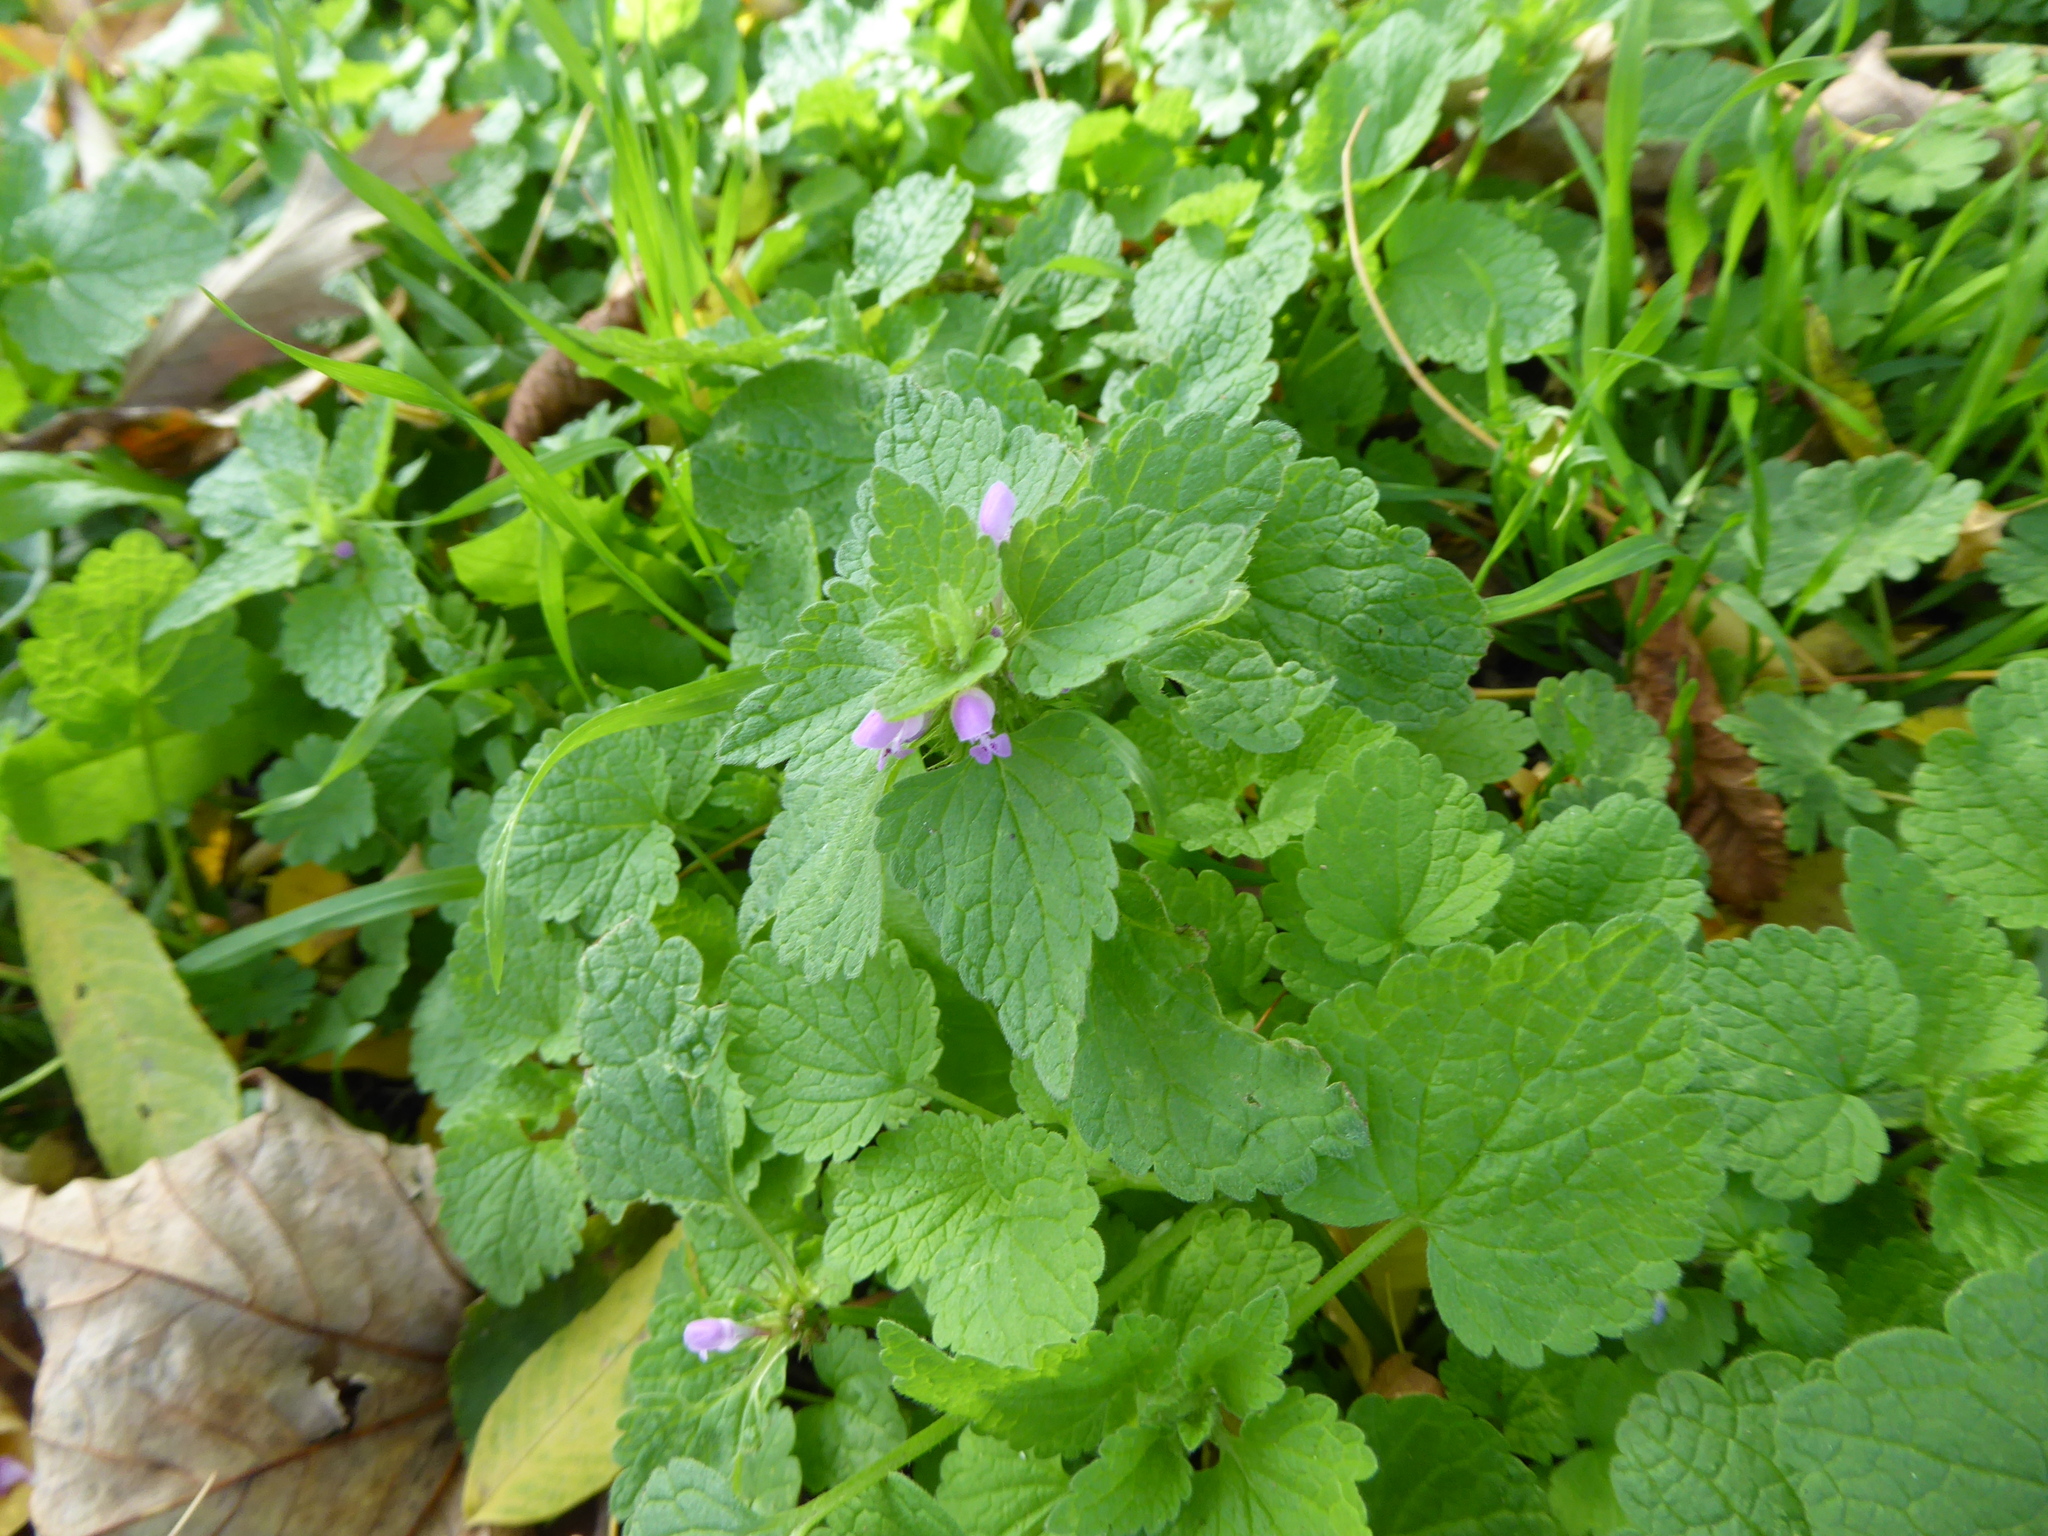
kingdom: Plantae
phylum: Tracheophyta
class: Magnoliopsida
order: Lamiales
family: Lamiaceae
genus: Lamium
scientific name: Lamium purpureum
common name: Red dead-nettle
